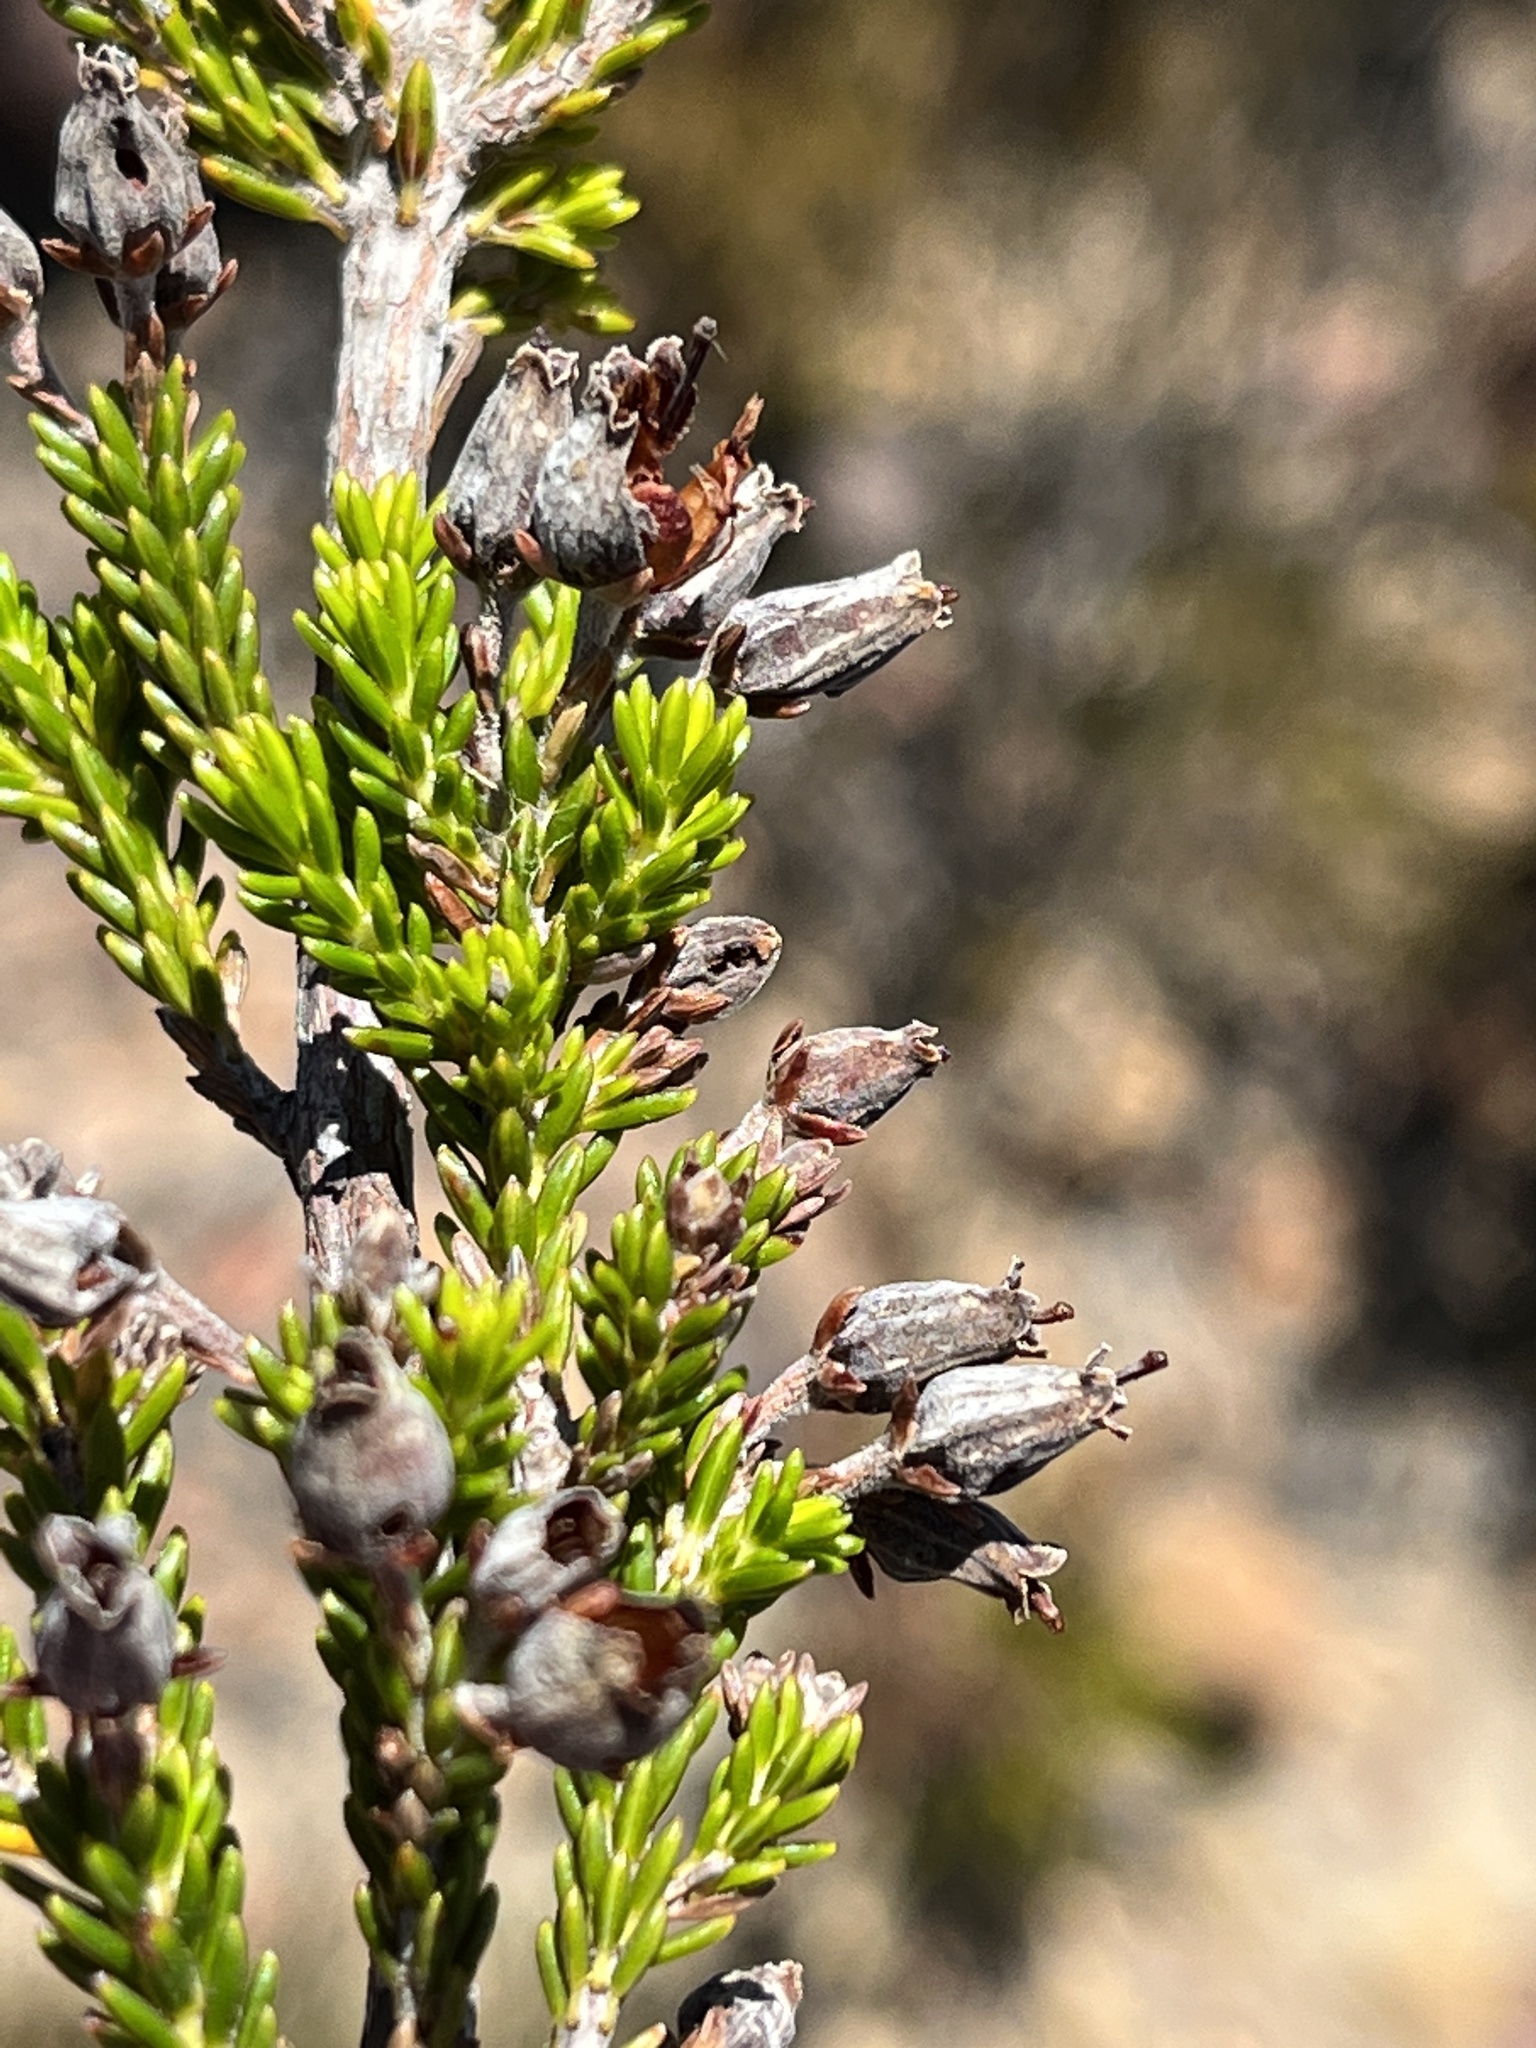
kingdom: Plantae
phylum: Tracheophyta
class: Magnoliopsida
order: Ericales
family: Ericaceae
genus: Erica
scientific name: Erica saxigena
